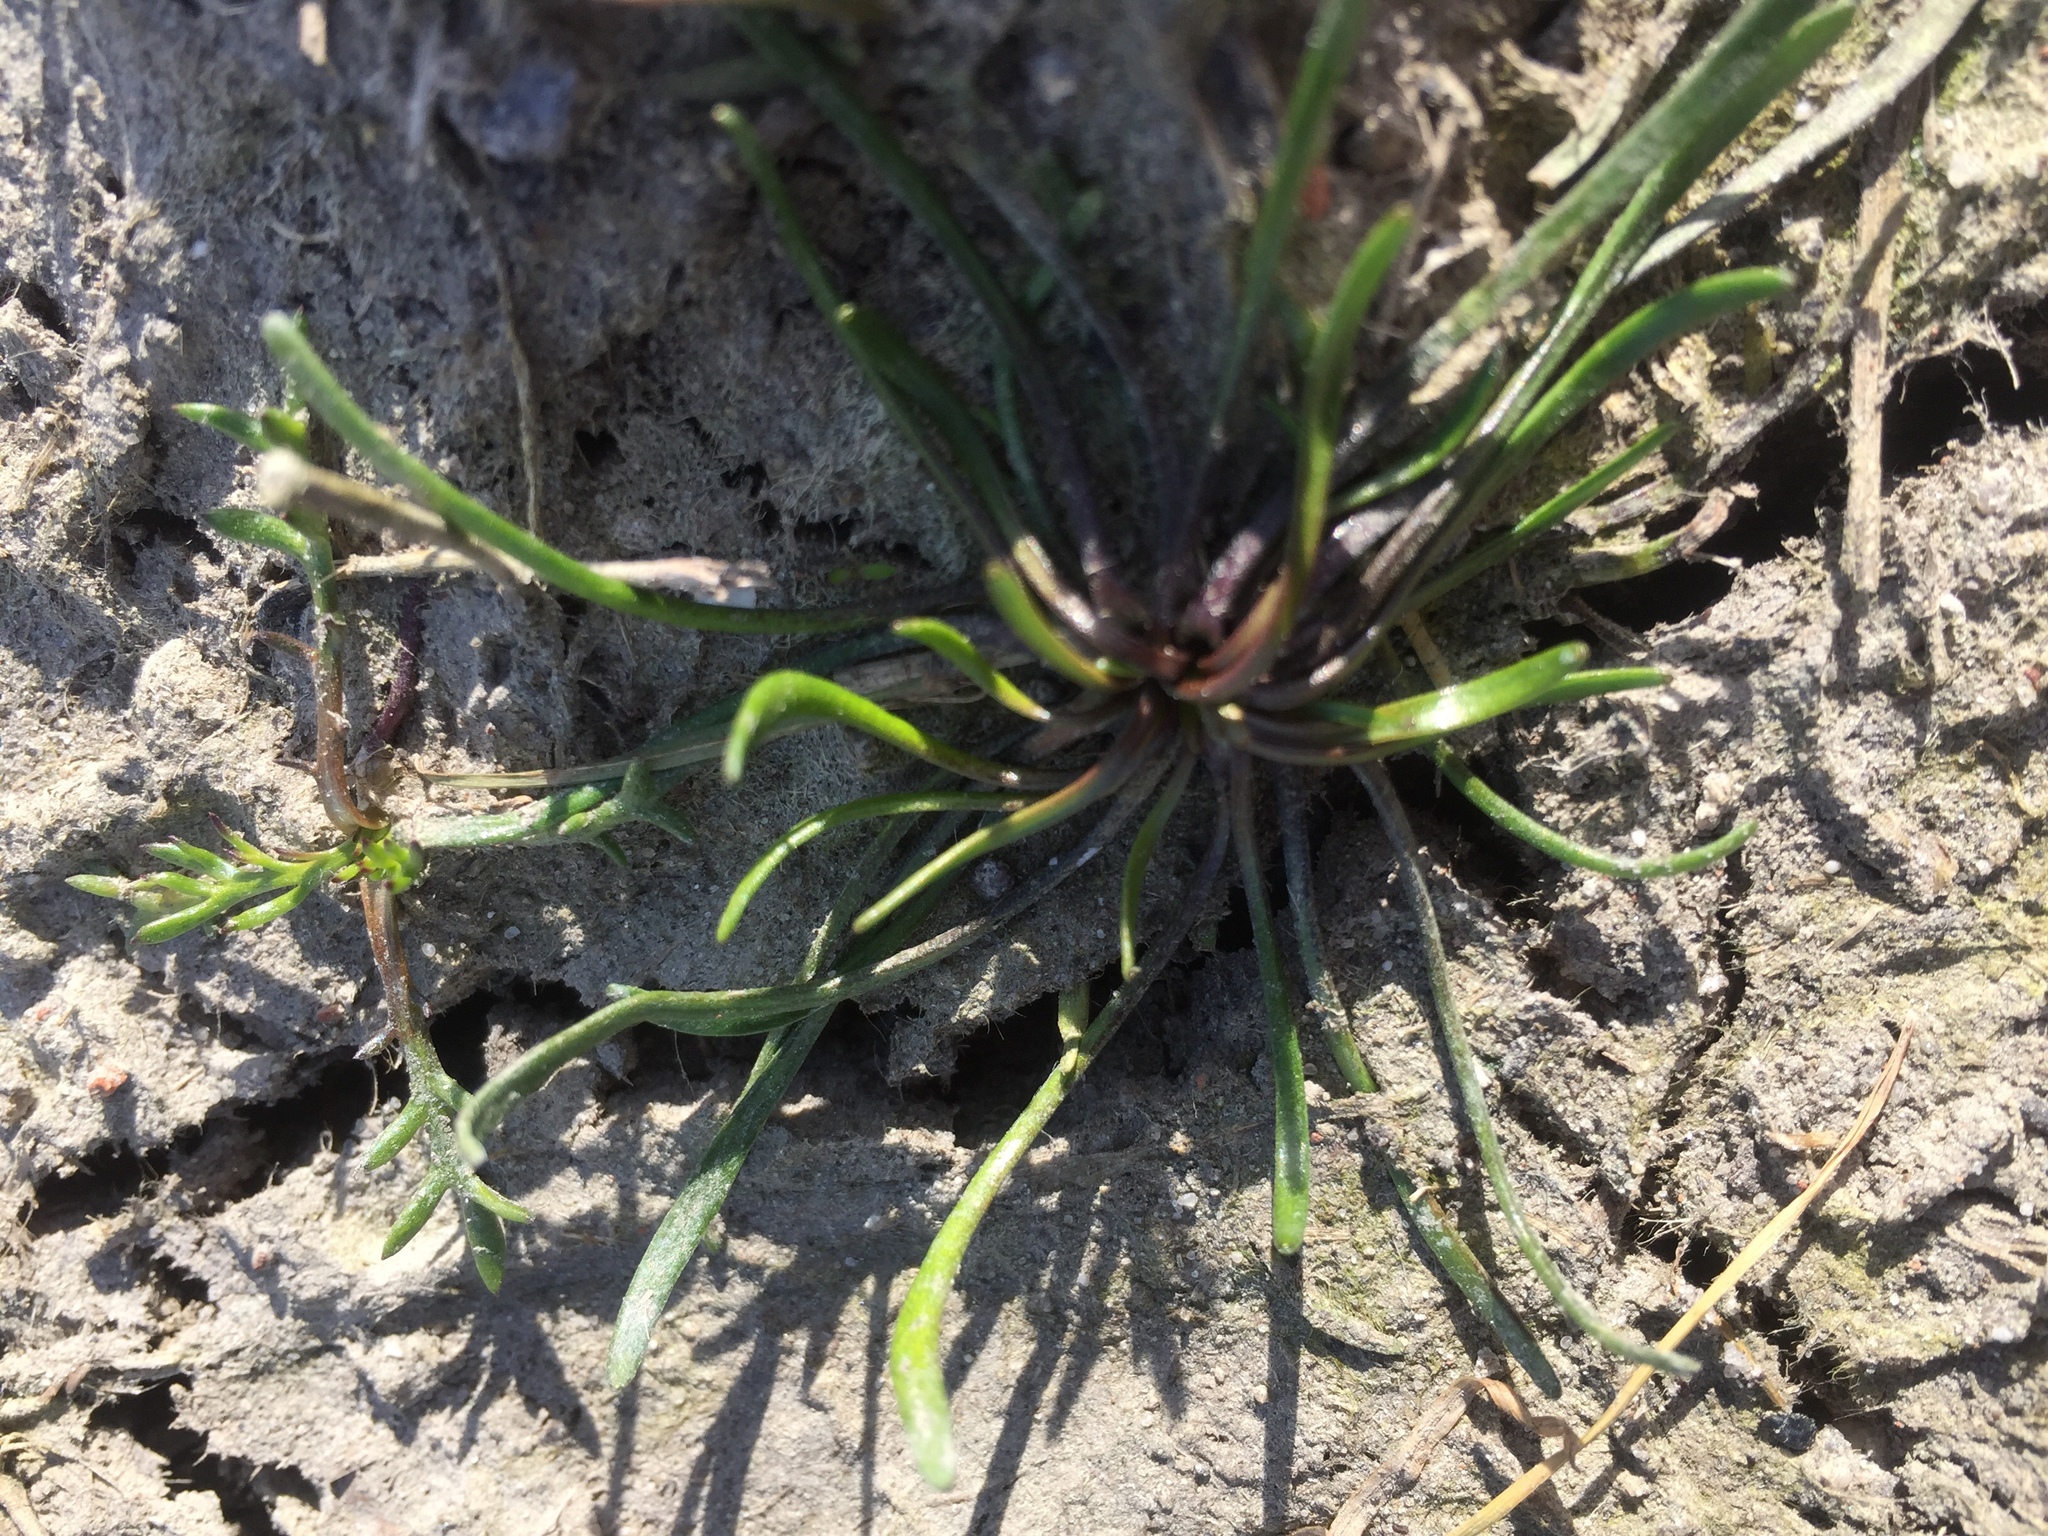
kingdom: Plantae
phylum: Tracheophyta
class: Magnoliopsida
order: Ranunculales
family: Ranunculaceae
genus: Myosurus
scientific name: Myosurus minimus
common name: Mousetail
